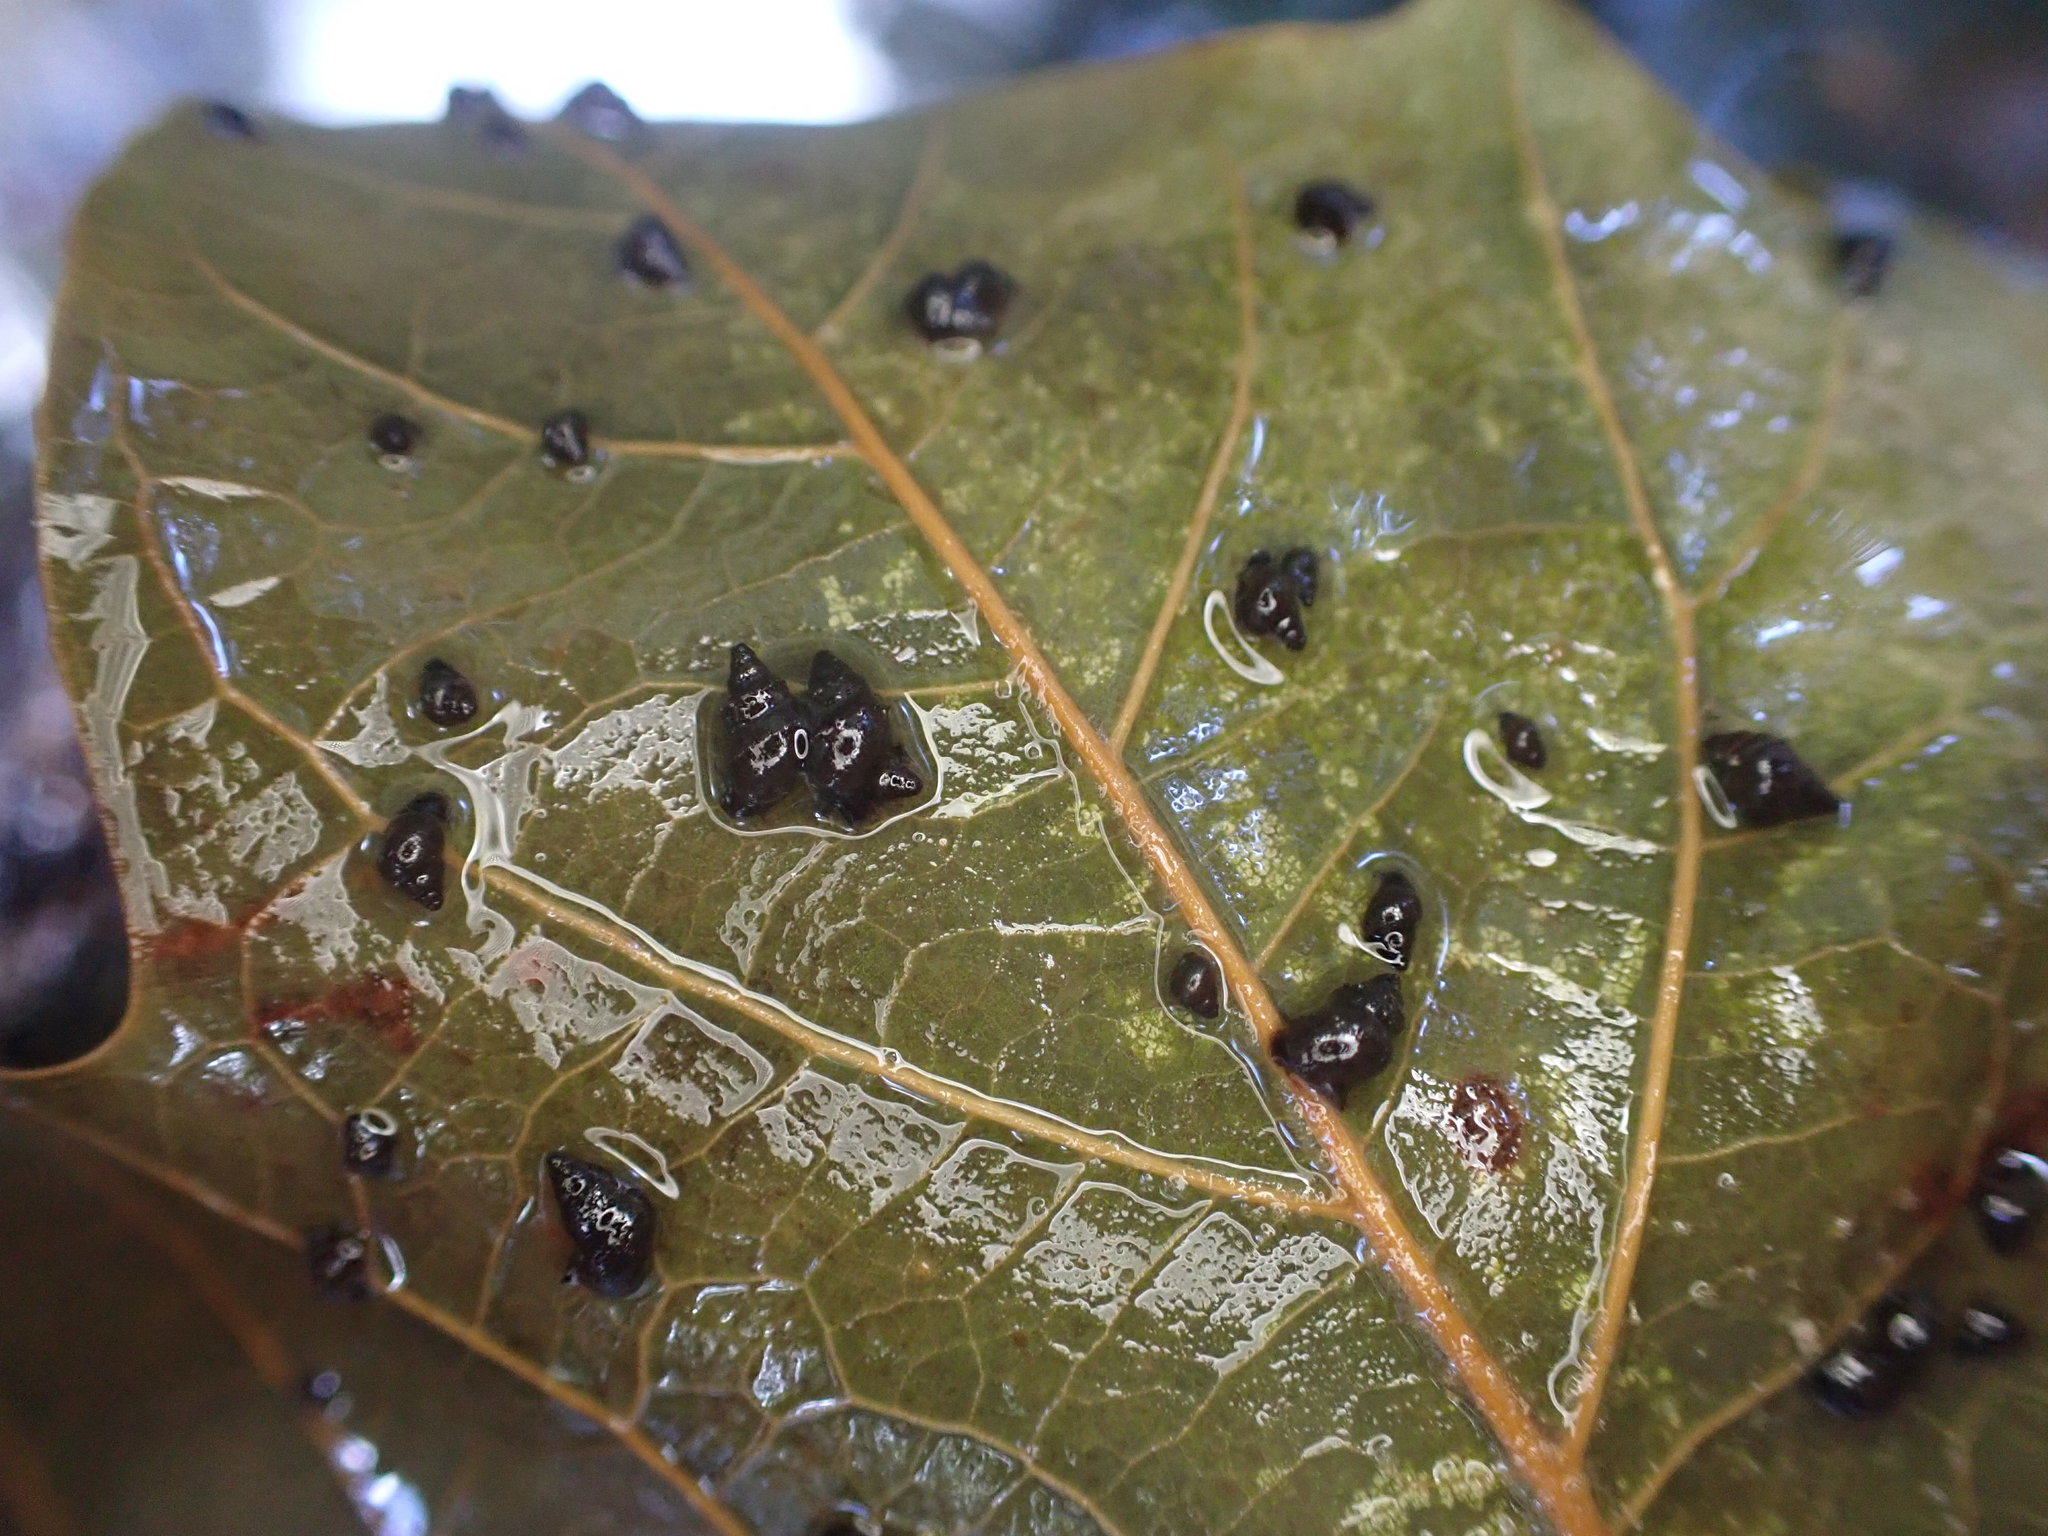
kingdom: Animalia
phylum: Mollusca
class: Gastropoda
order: Littorinimorpha
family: Tateidae
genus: Potamopyrgus
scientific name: Potamopyrgus antipodarum
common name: Jenkins' spire snail
